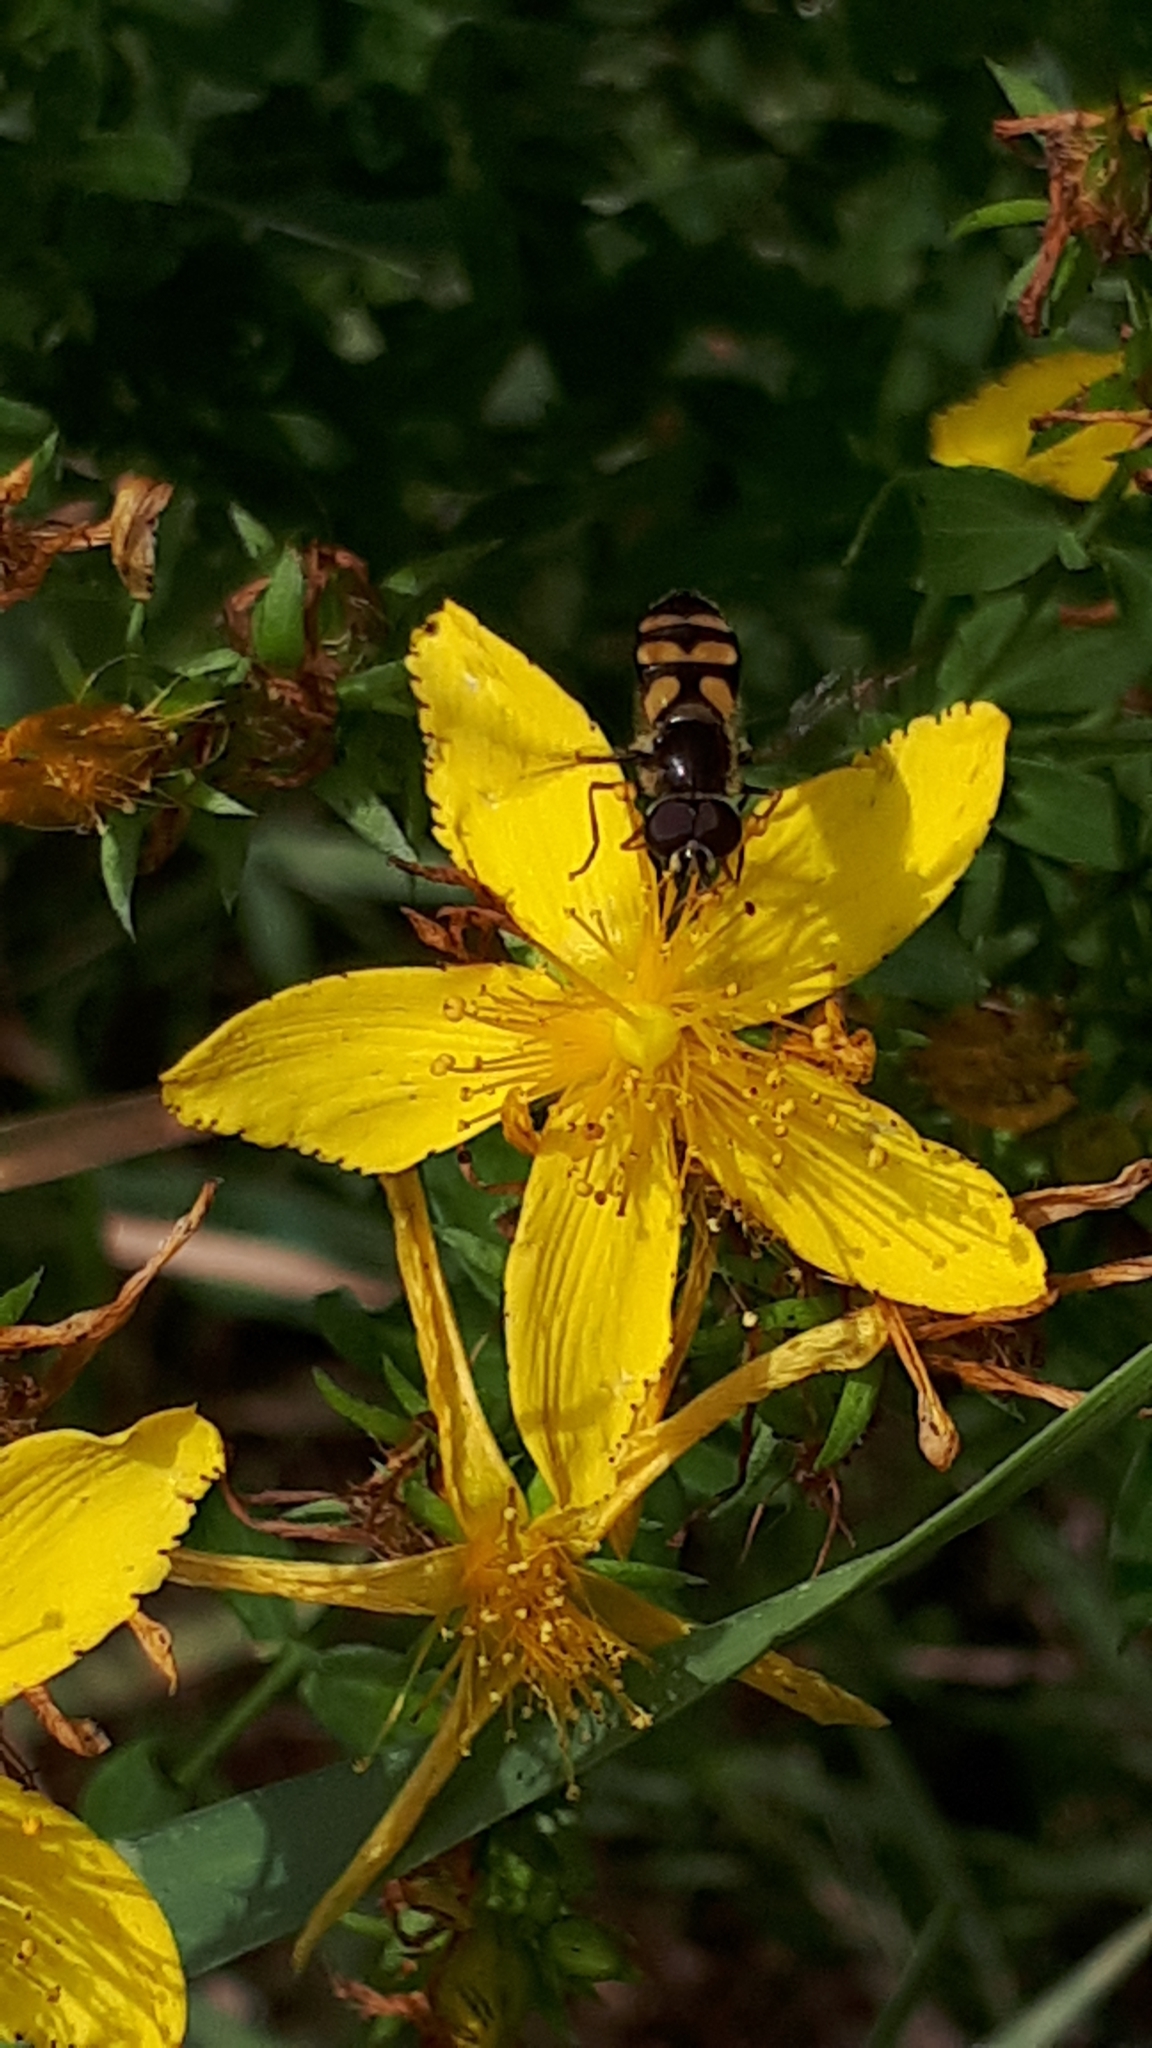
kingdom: Animalia
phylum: Arthropoda
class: Insecta
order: Diptera
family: Syrphidae
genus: Didea
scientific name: Didea fasciata
